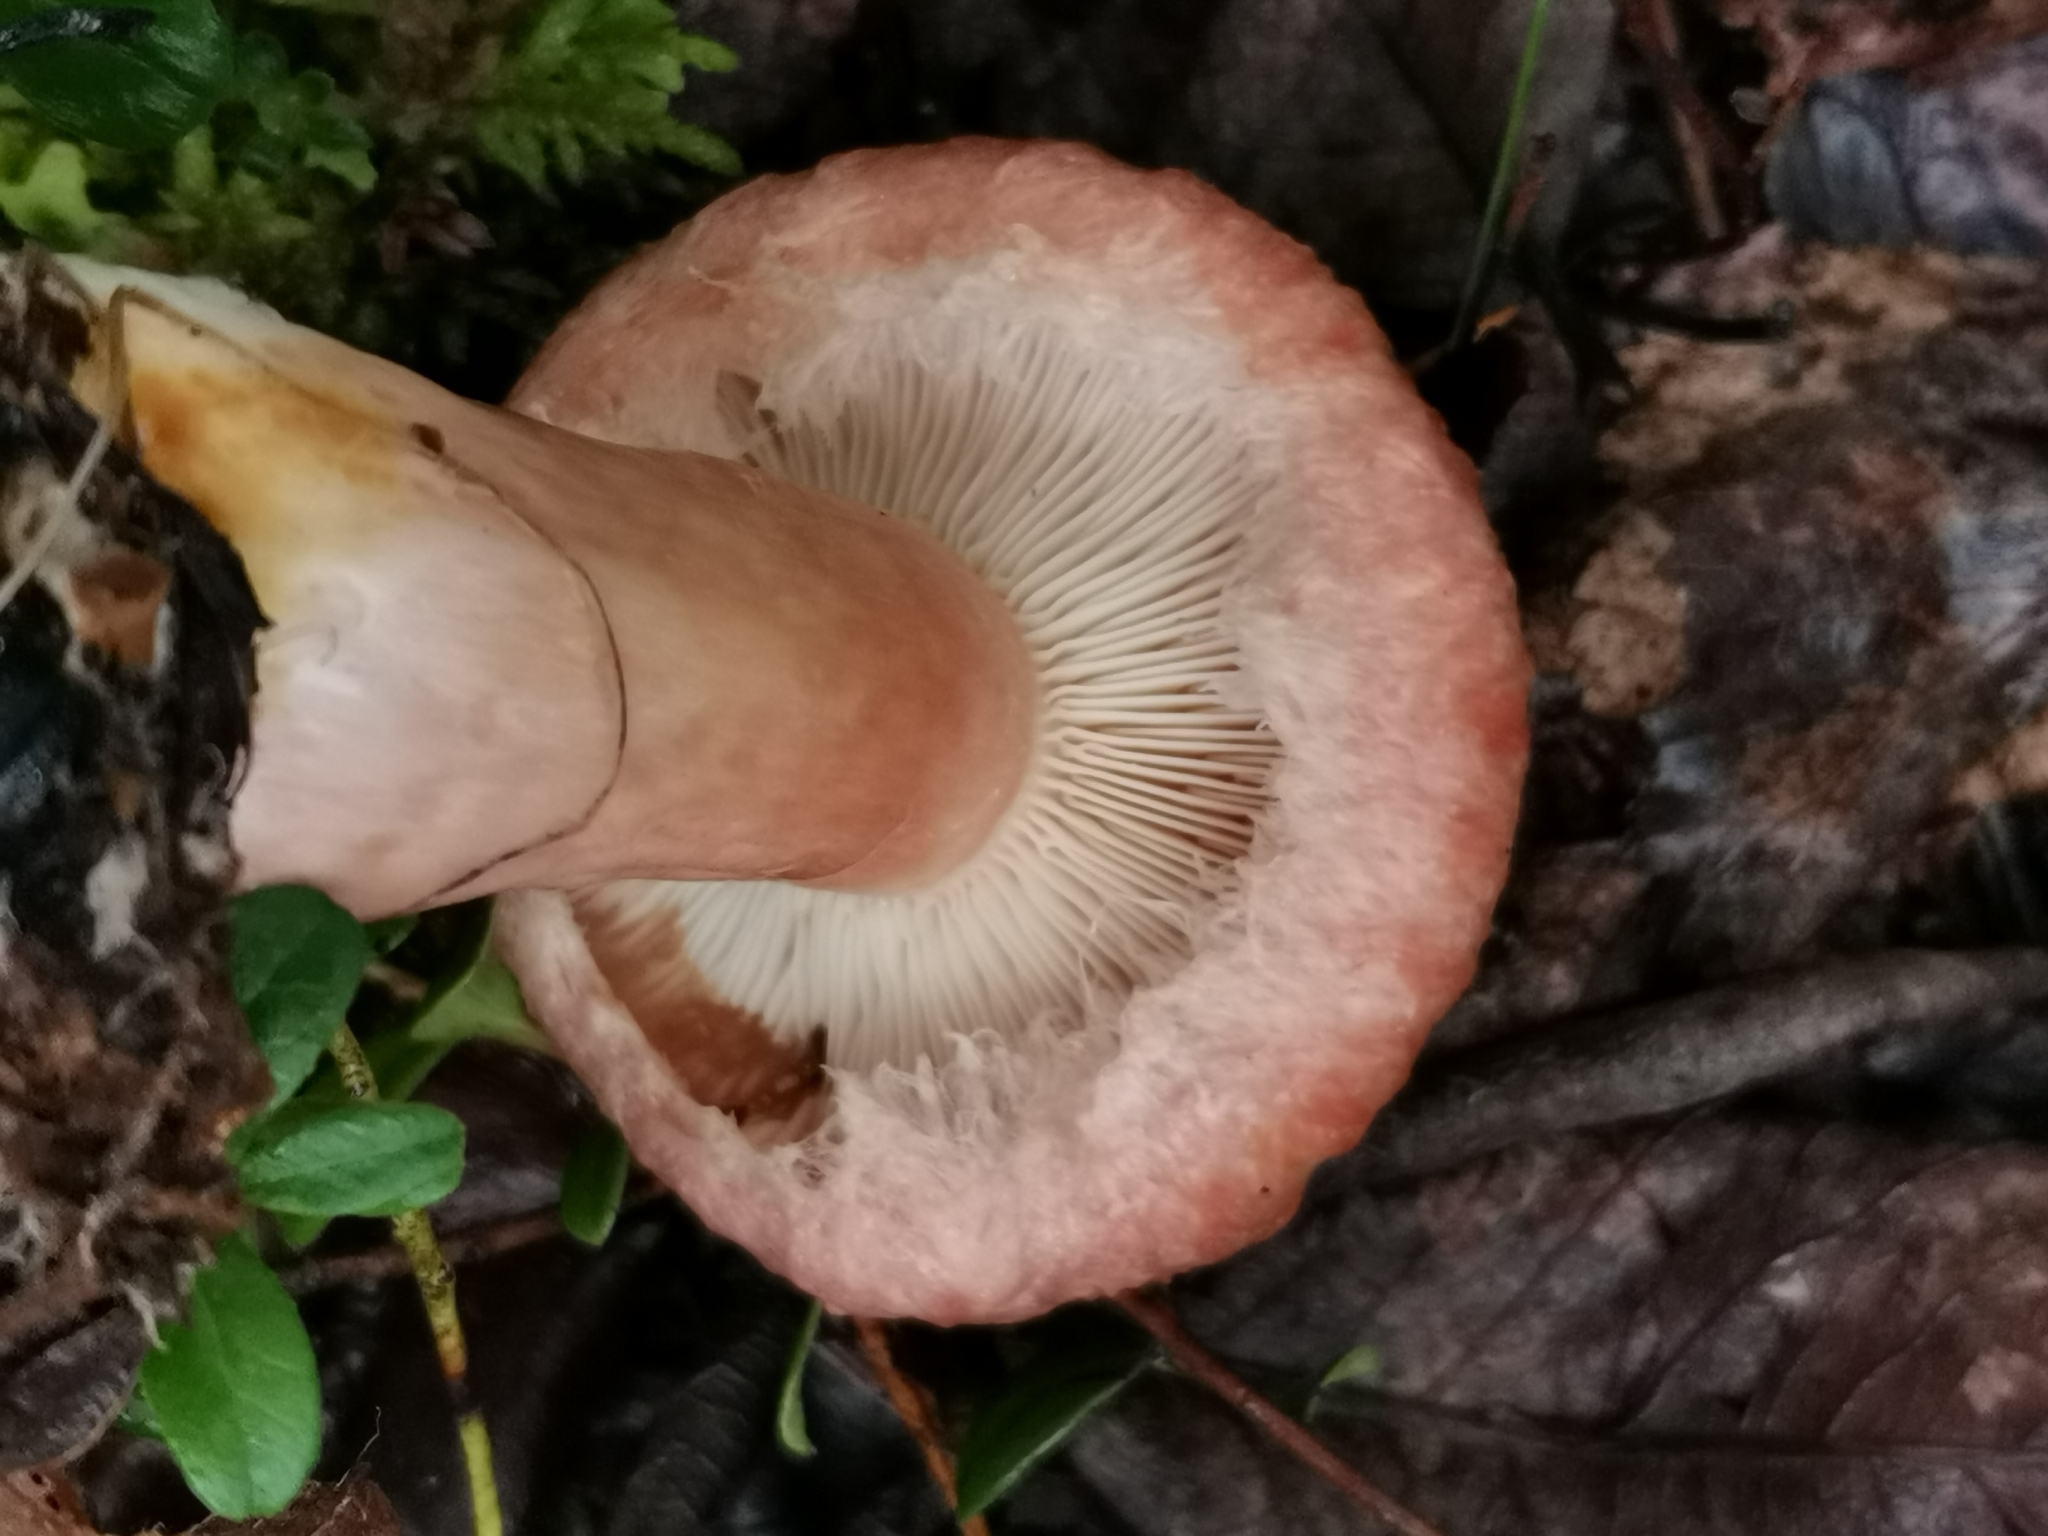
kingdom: Fungi
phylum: Basidiomycota
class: Agaricomycetes
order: Russulales
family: Russulaceae
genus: Lactarius
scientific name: Lactarius torminosus
